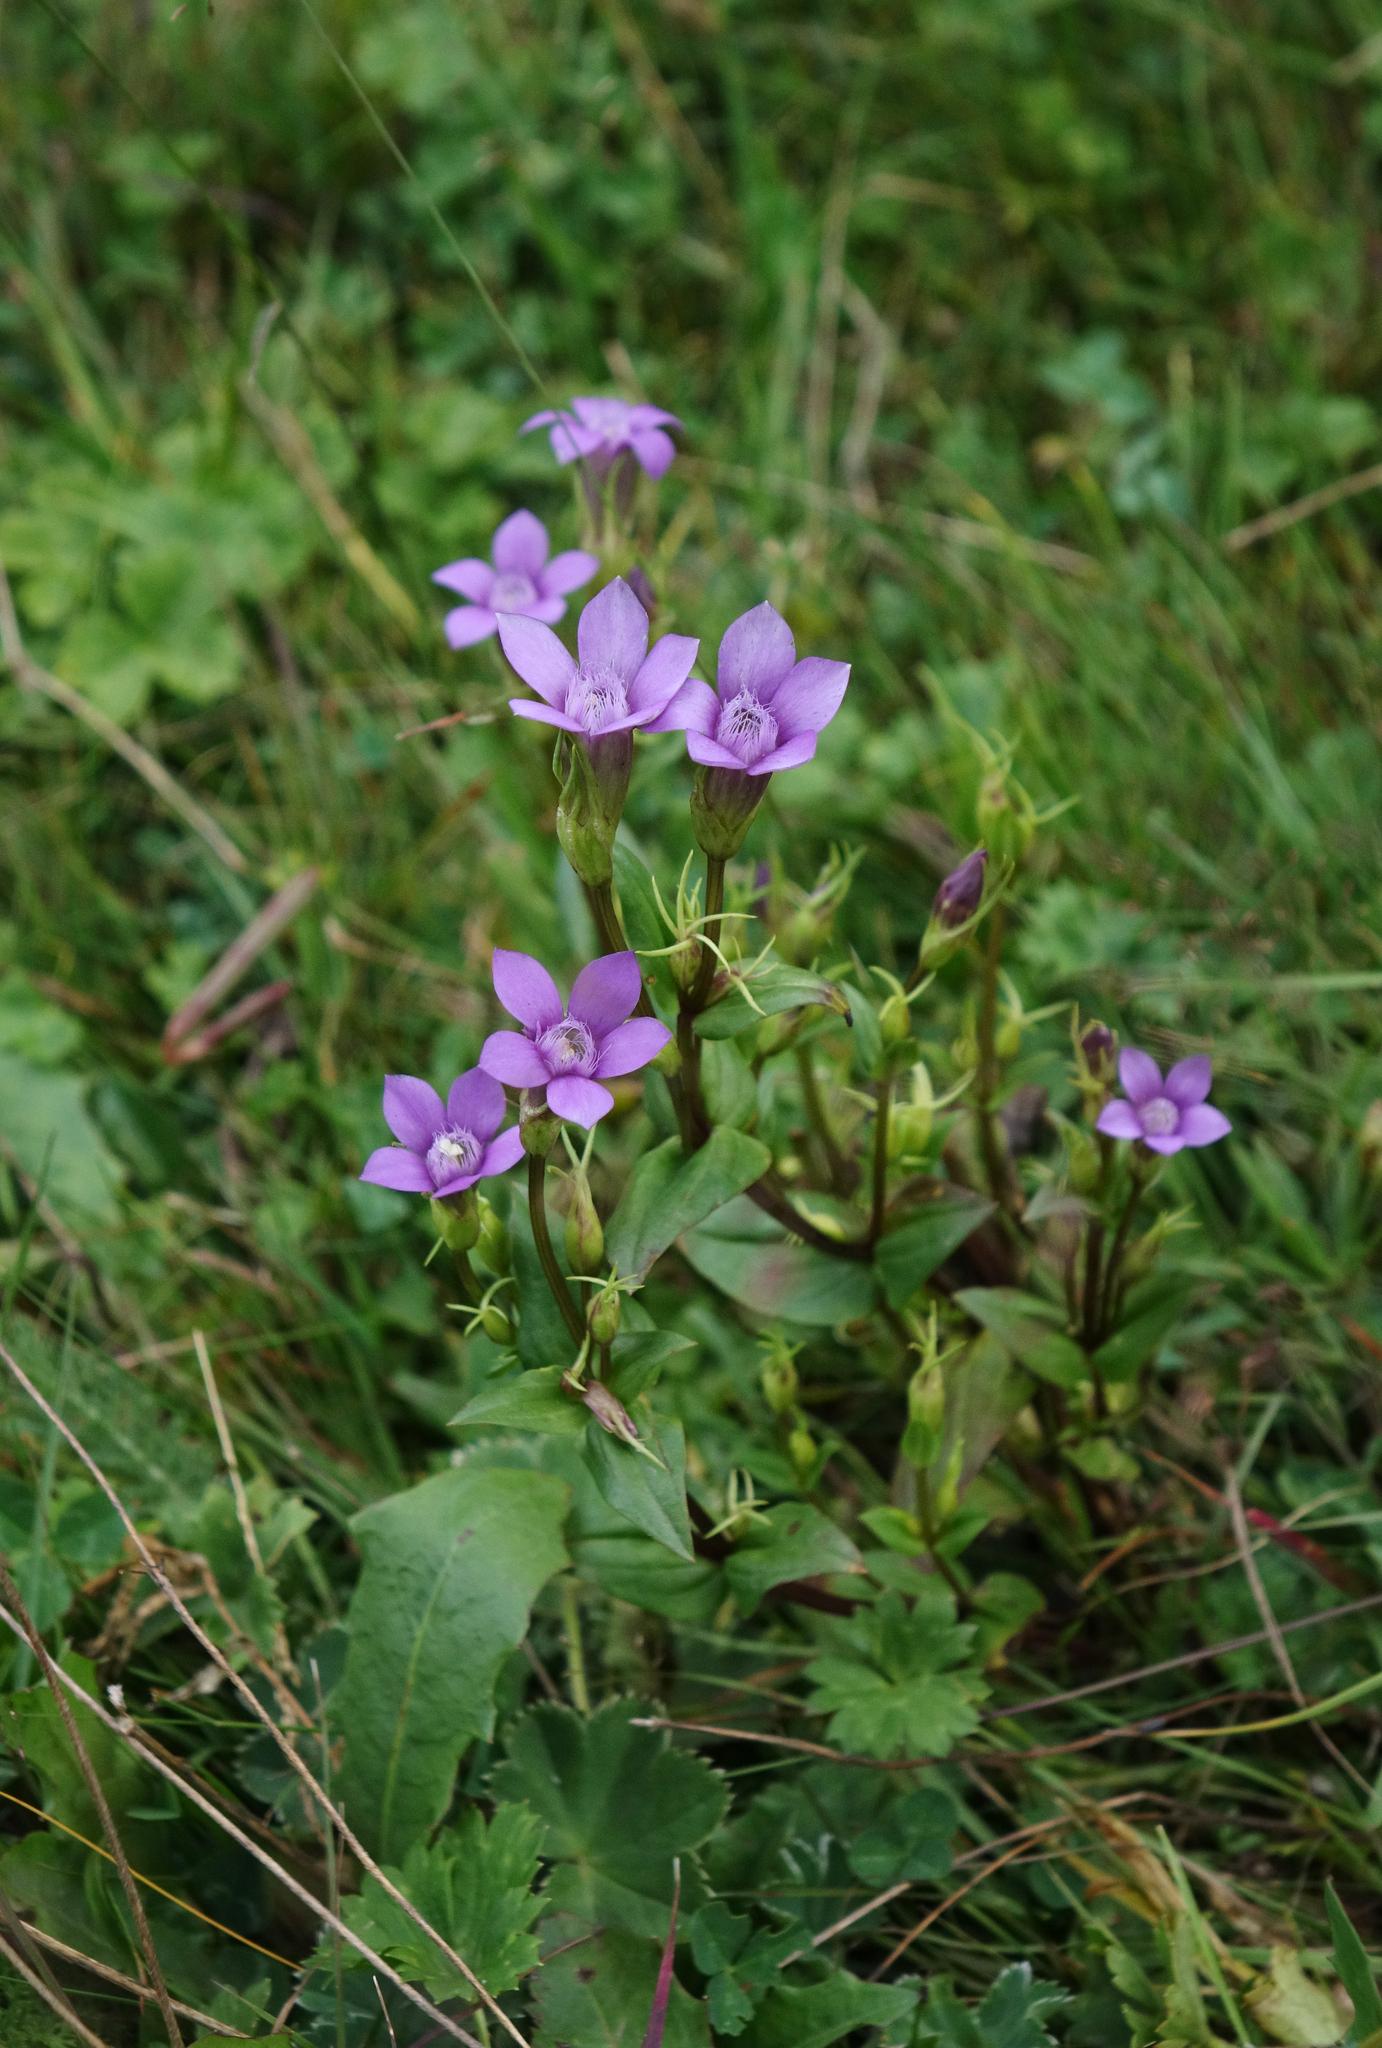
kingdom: Plantae
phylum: Tracheophyta
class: Magnoliopsida
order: Gentianales
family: Gentianaceae
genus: Gentianella
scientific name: Gentianella caucasea
